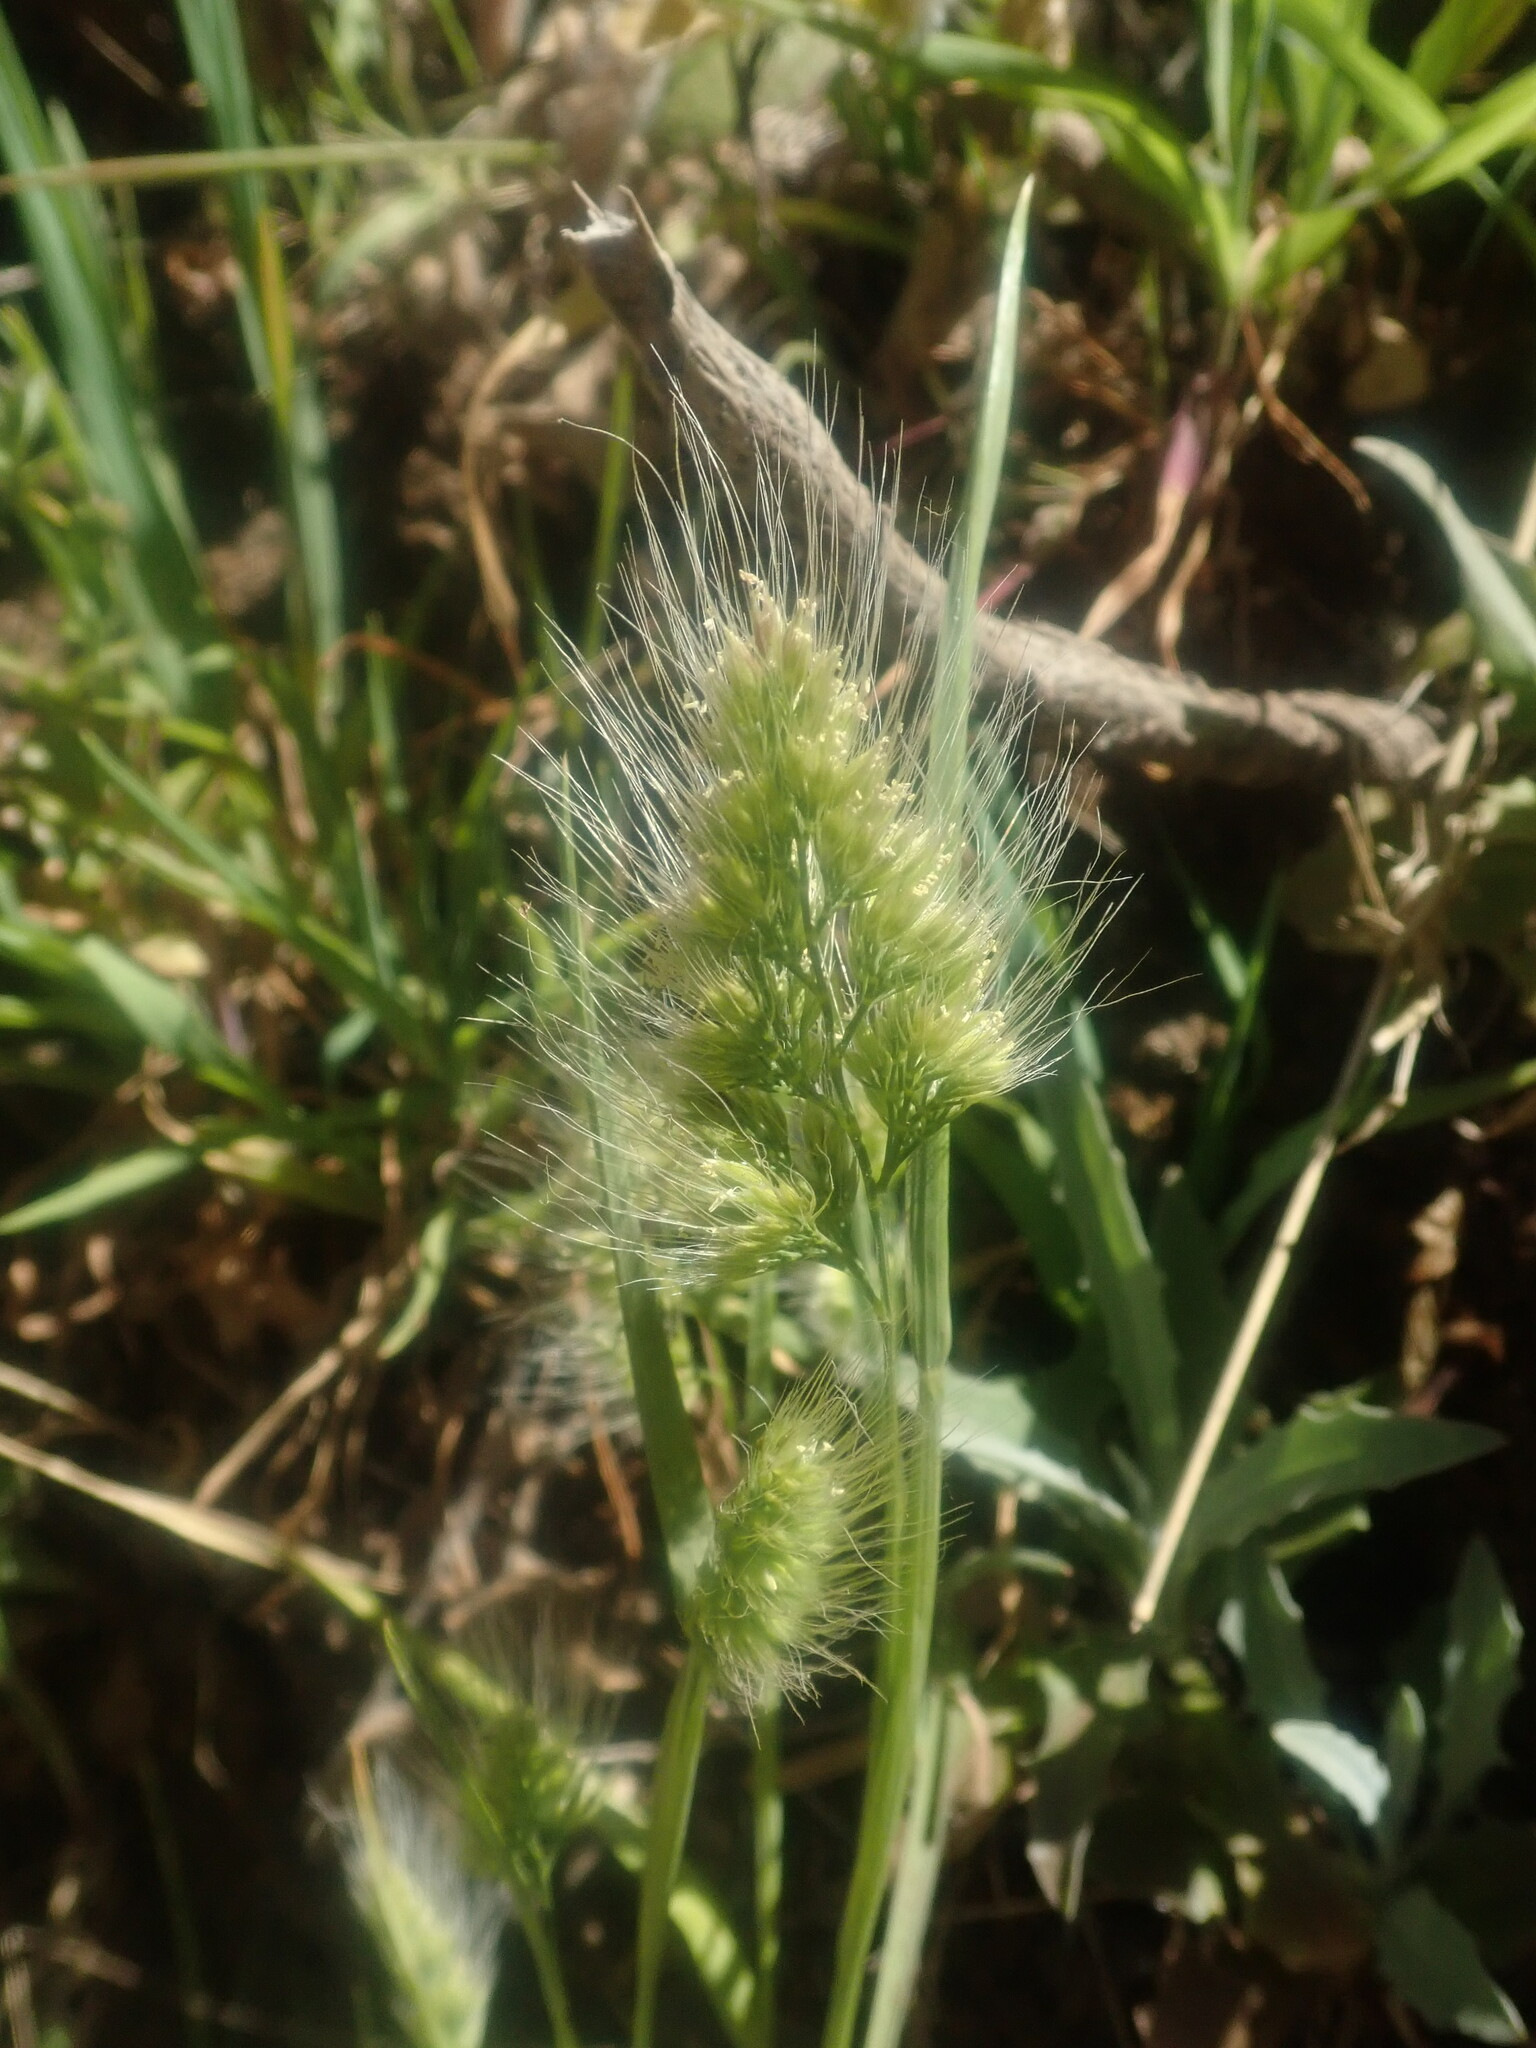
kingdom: Plantae
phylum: Tracheophyta
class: Liliopsida
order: Poales
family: Poaceae
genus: Cynosurus
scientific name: Cynosurus echinatus
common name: Rough dog's-tail
